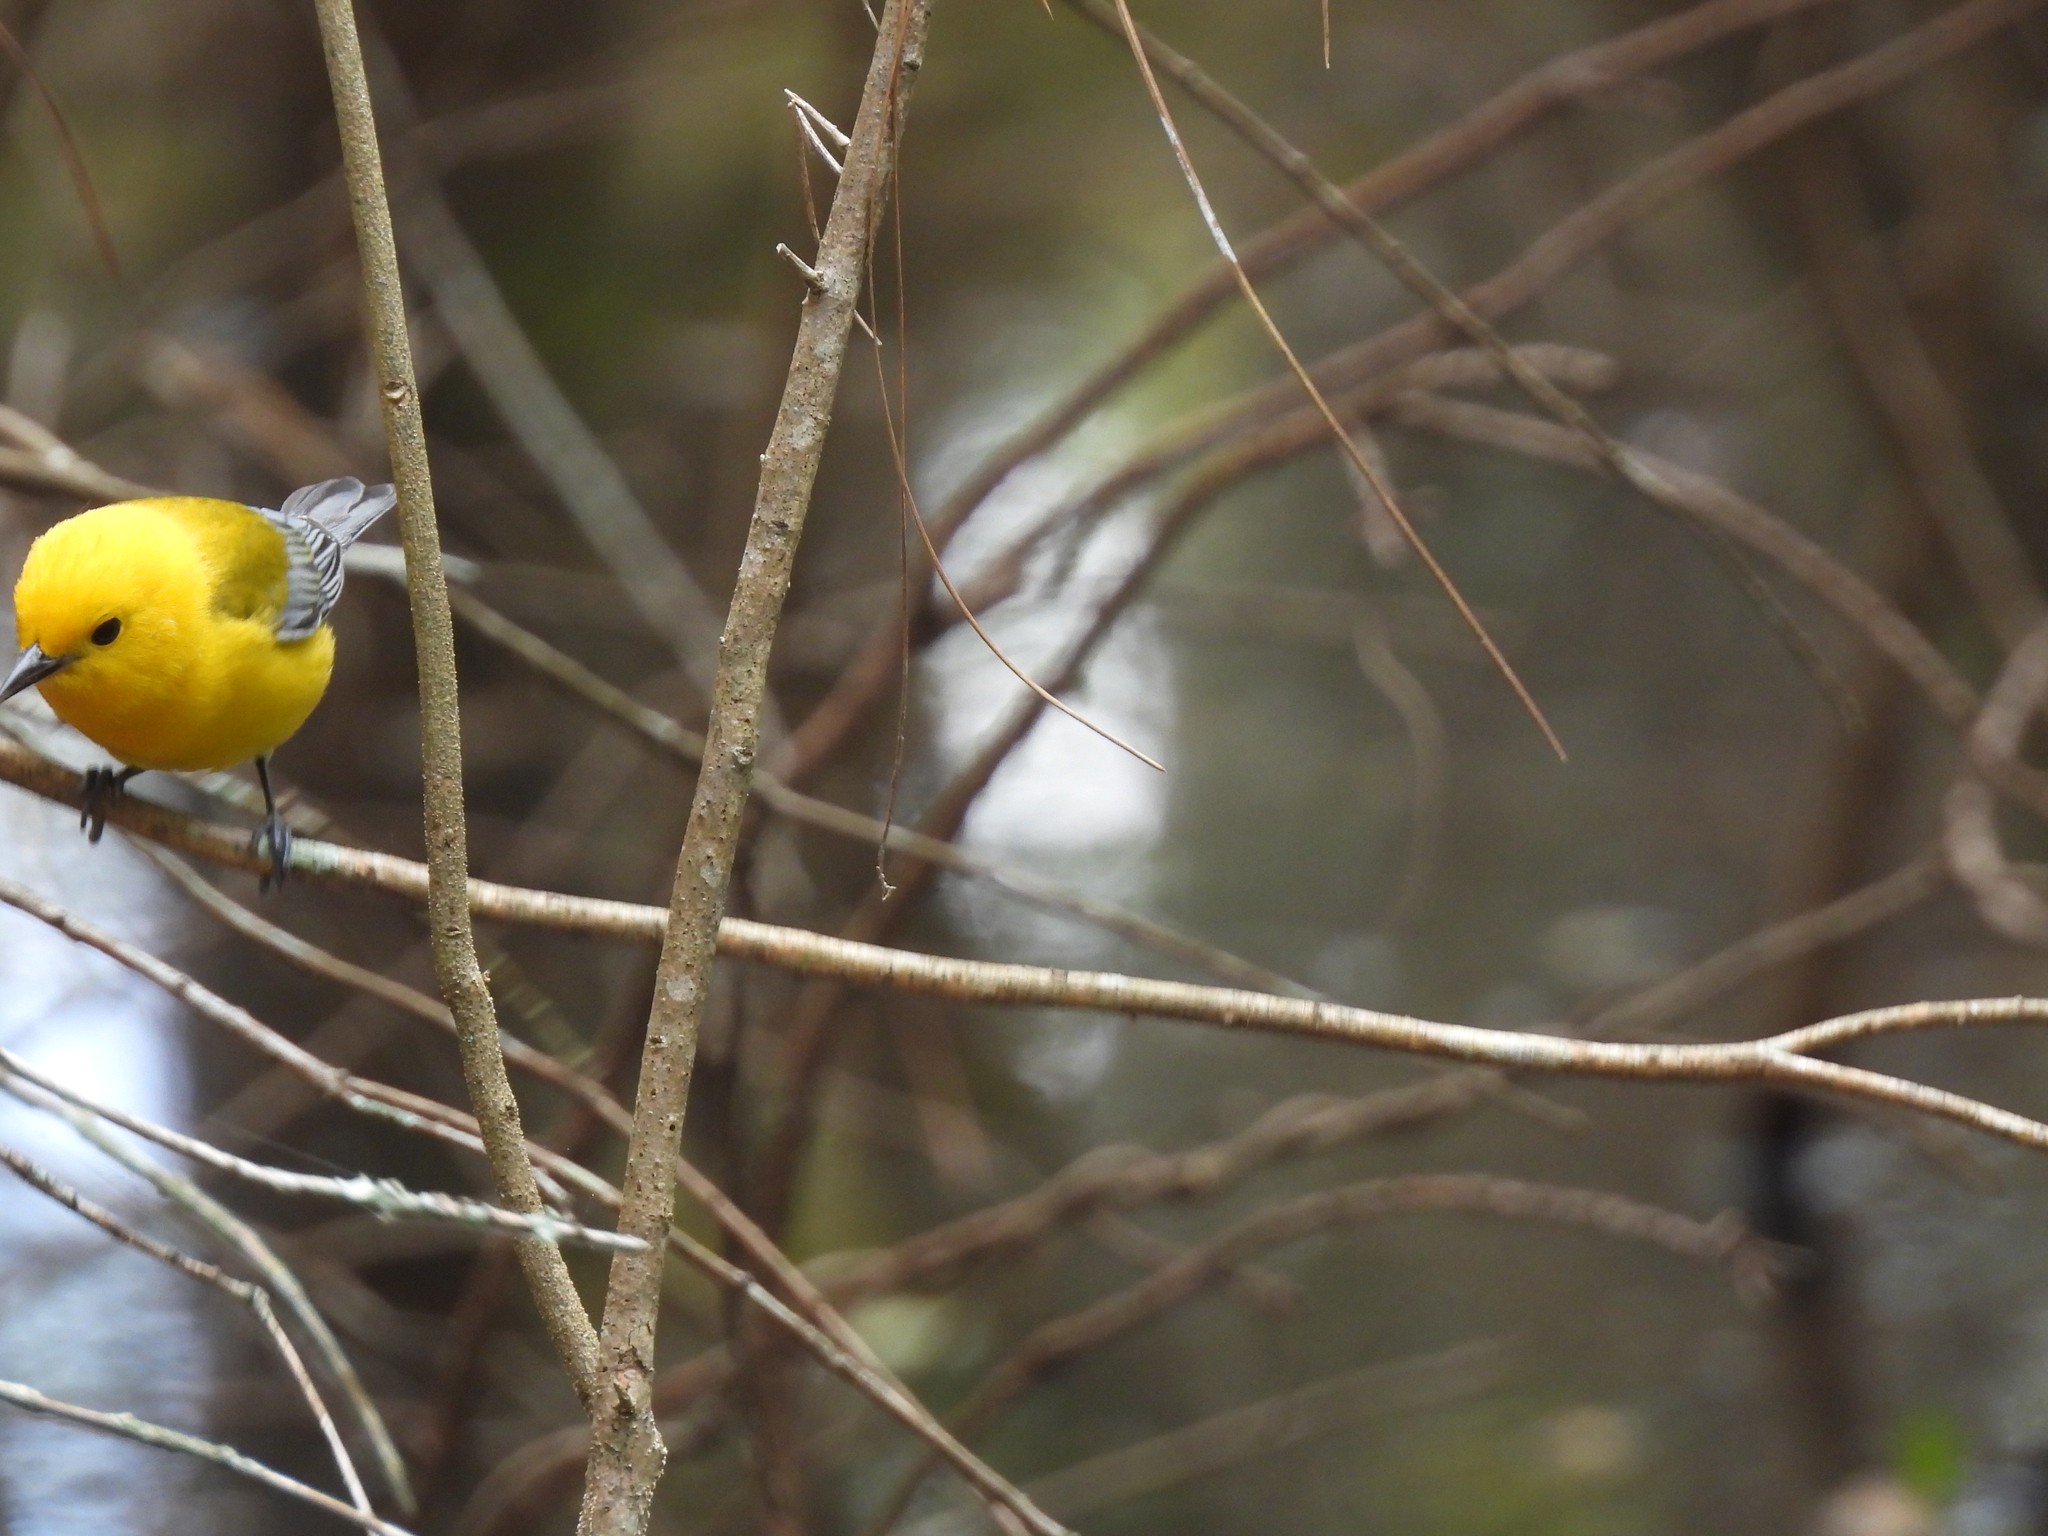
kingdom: Animalia
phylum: Chordata
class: Aves
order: Passeriformes
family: Parulidae
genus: Protonotaria
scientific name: Protonotaria citrea
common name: Prothonotary warbler
